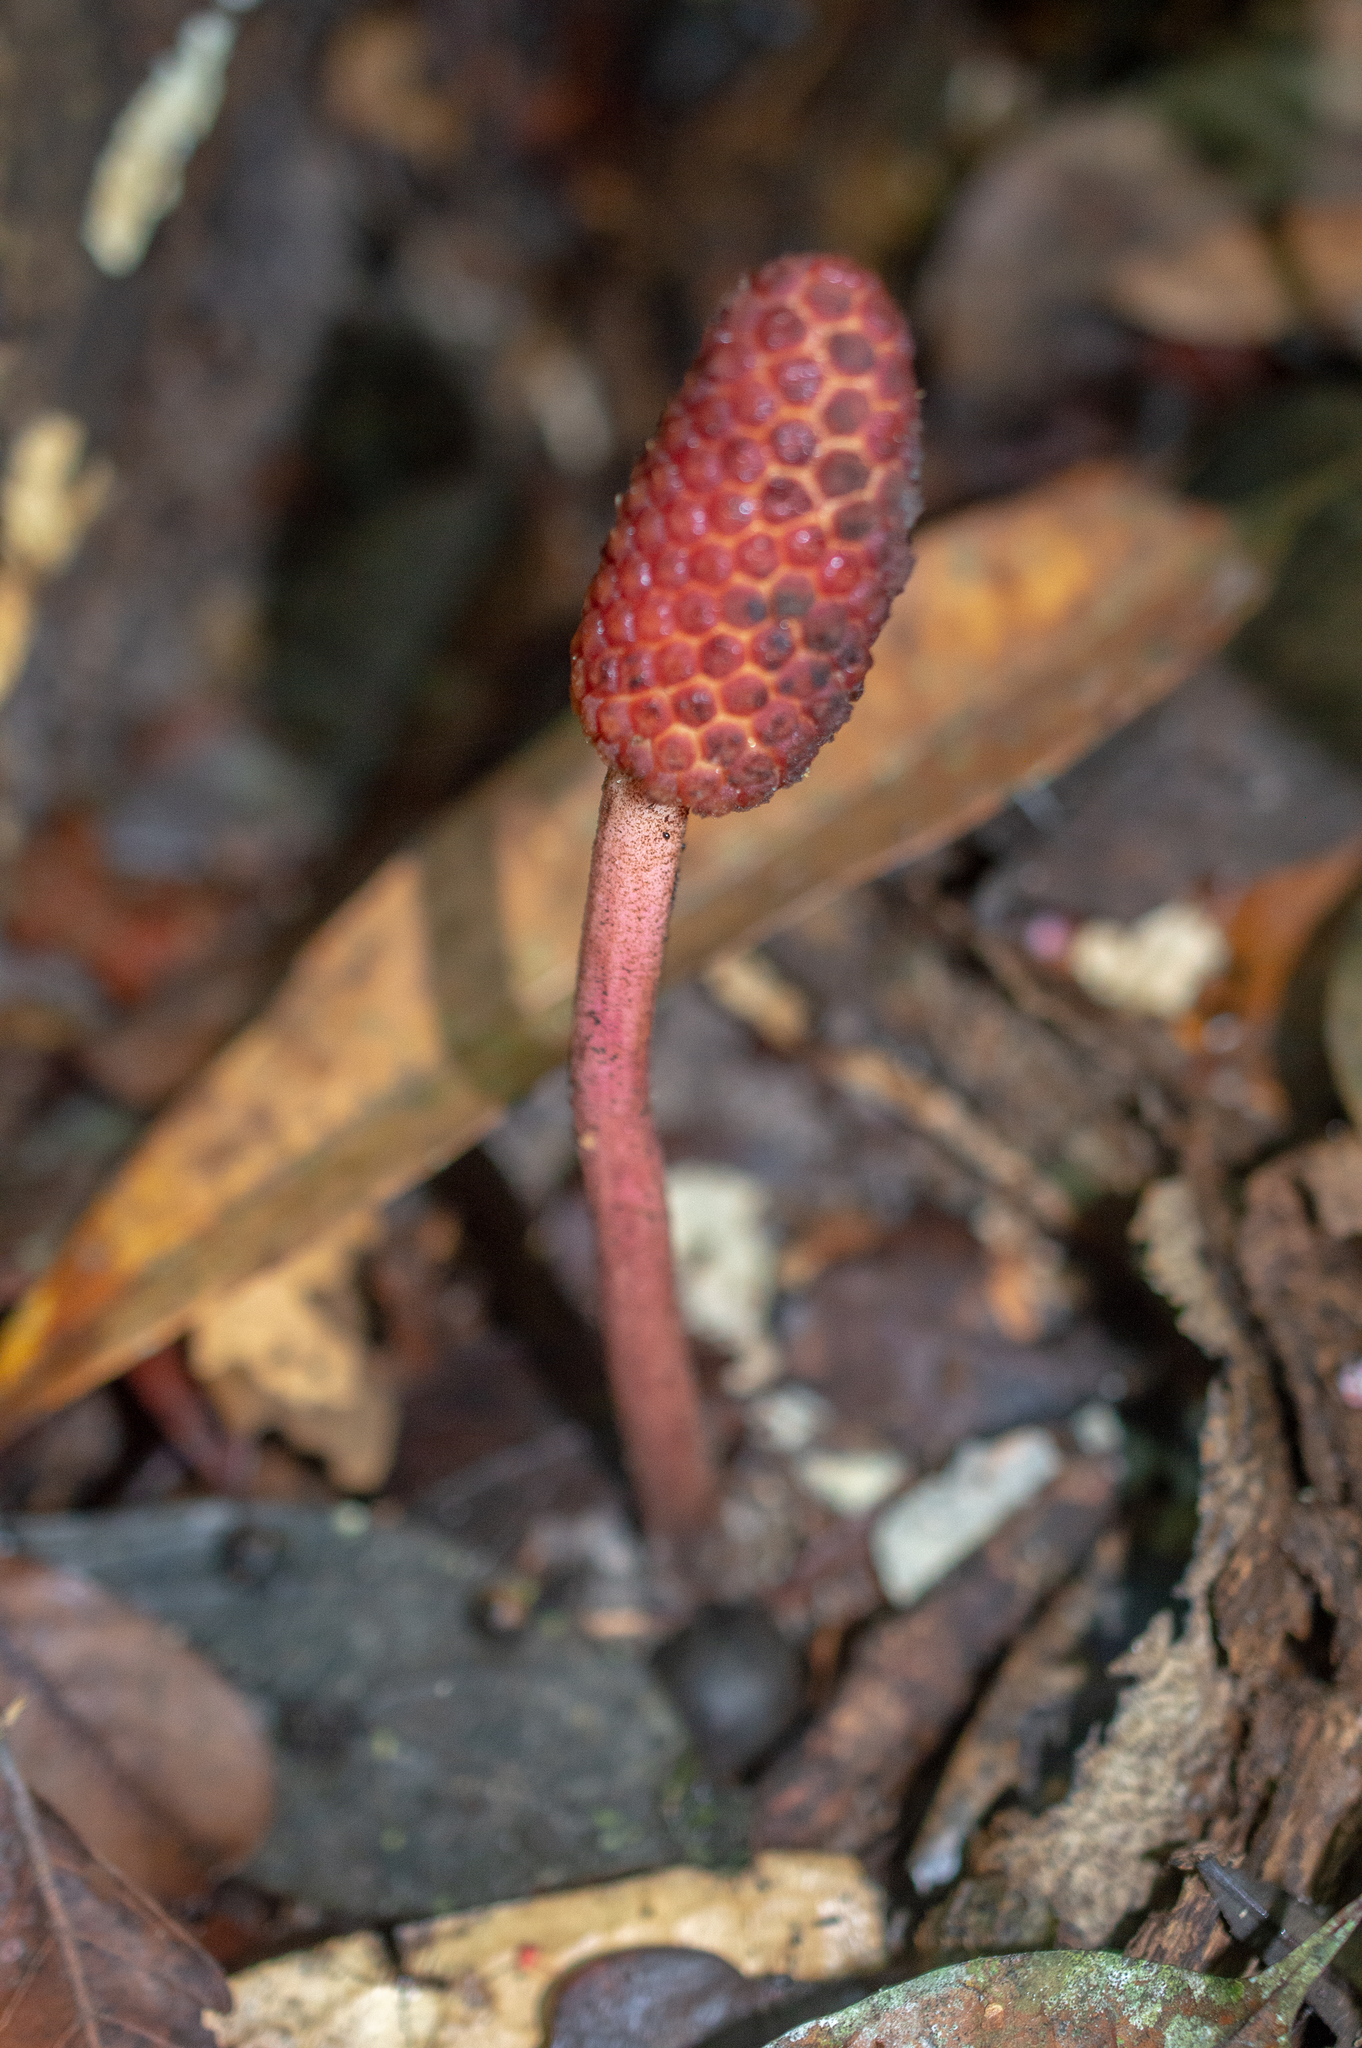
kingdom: Plantae
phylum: Tracheophyta
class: Magnoliopsida
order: Santalales
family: Balanophoraceae
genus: Helosis
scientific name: Helosis cayennensis
